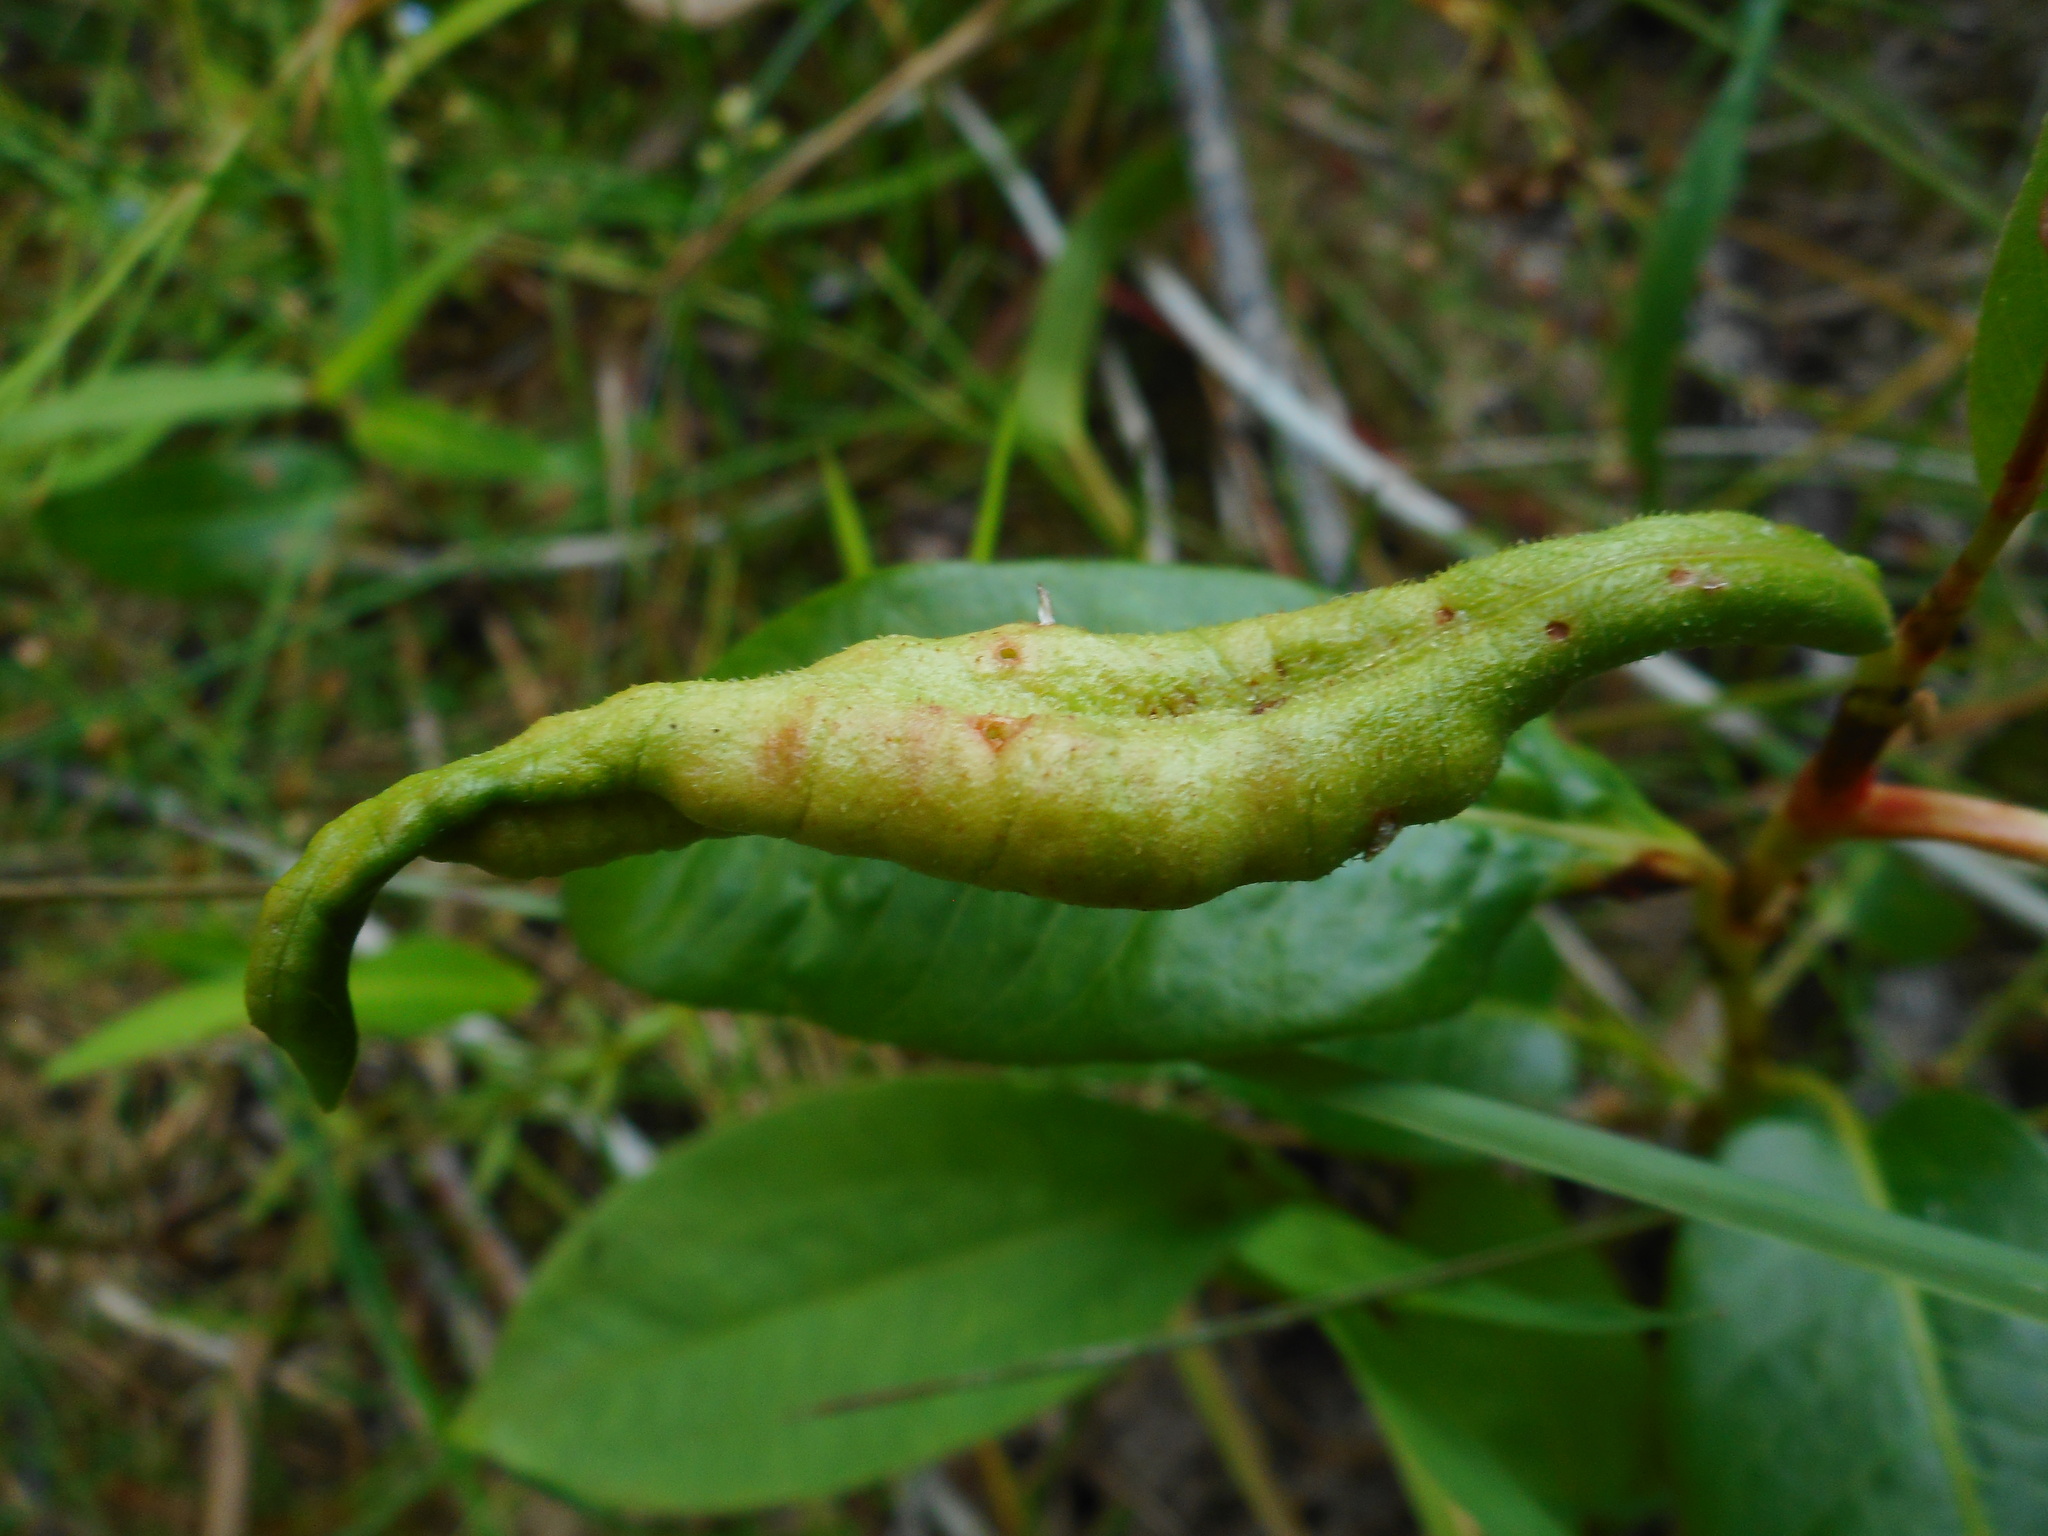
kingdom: Animalia
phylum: Arthropoda
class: Insecta
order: Diptera
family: Cecidomyiidae
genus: Wachtliella
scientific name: Wachtliella persicariae
